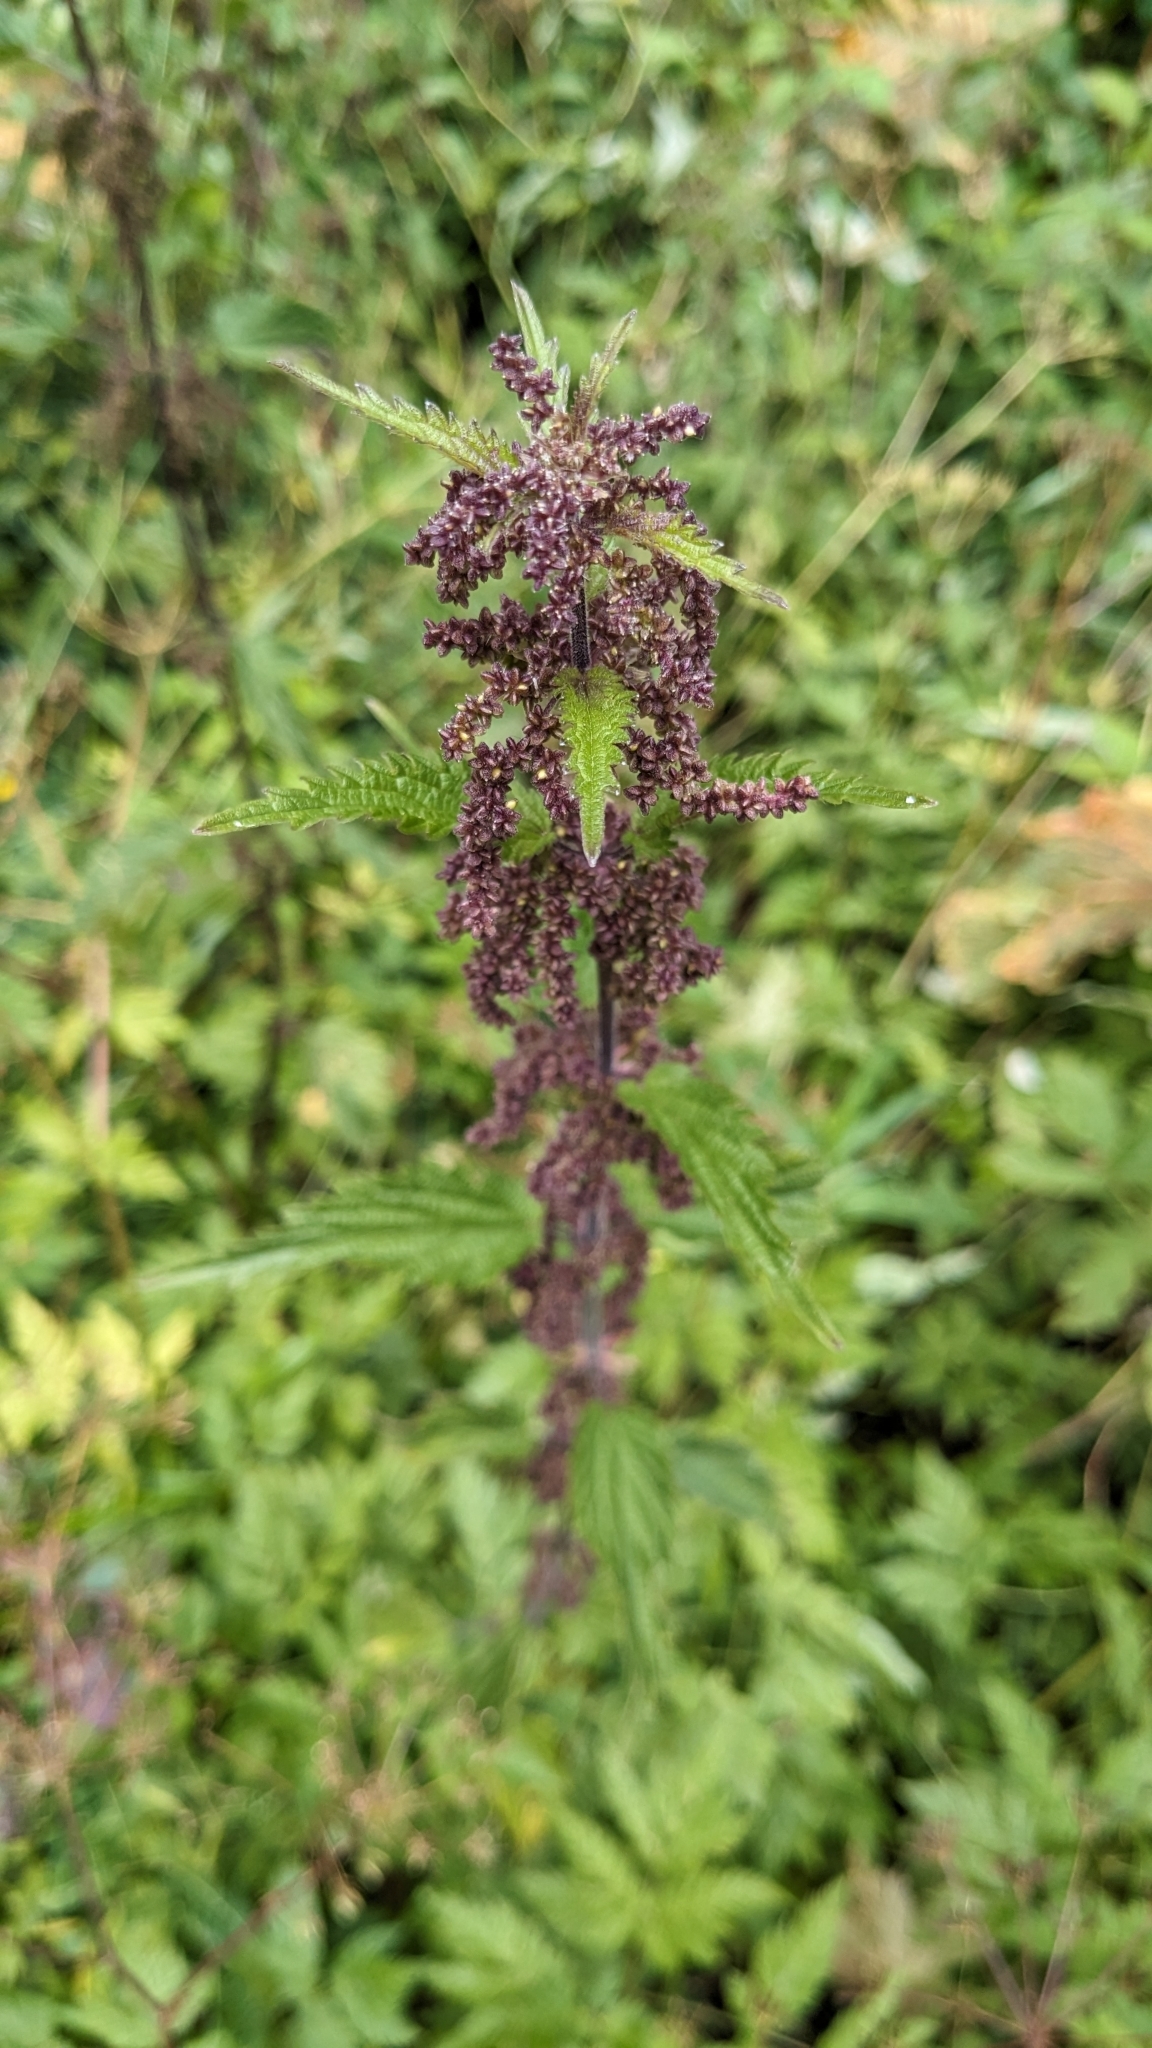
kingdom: Plantae
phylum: Tracheophyta
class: Magnoliopsida
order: Rosales
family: Urticaceae
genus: Urtica
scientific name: Urtica dioica
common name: Common nettle
